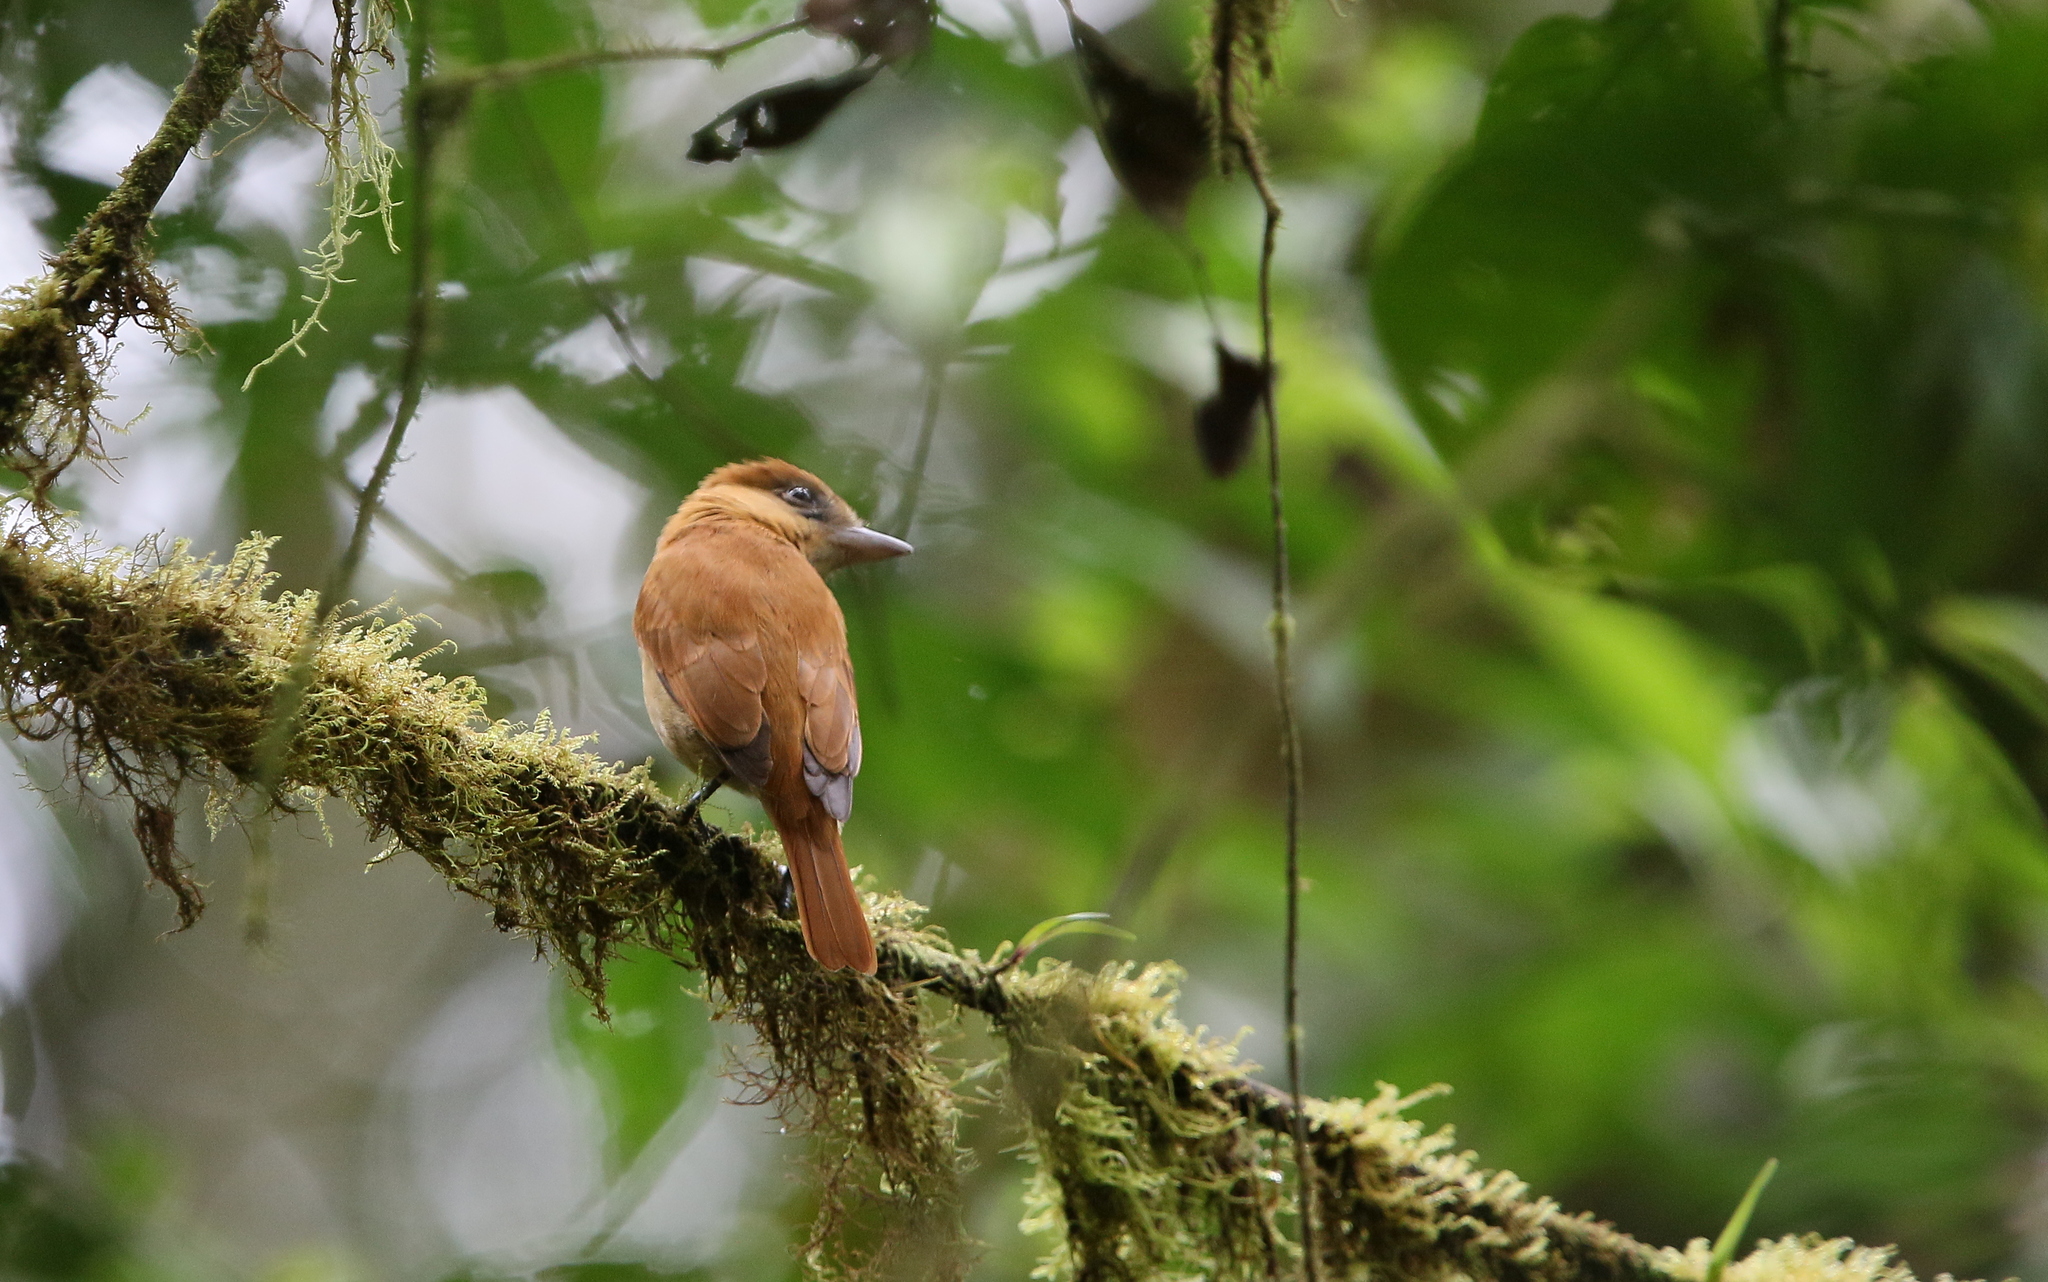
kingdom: Animalia
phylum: Chordata
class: Aves
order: Passeriformes
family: Cotingidae
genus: Pachyramphus
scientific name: Pachyramphus homochrous
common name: One-colored becard
